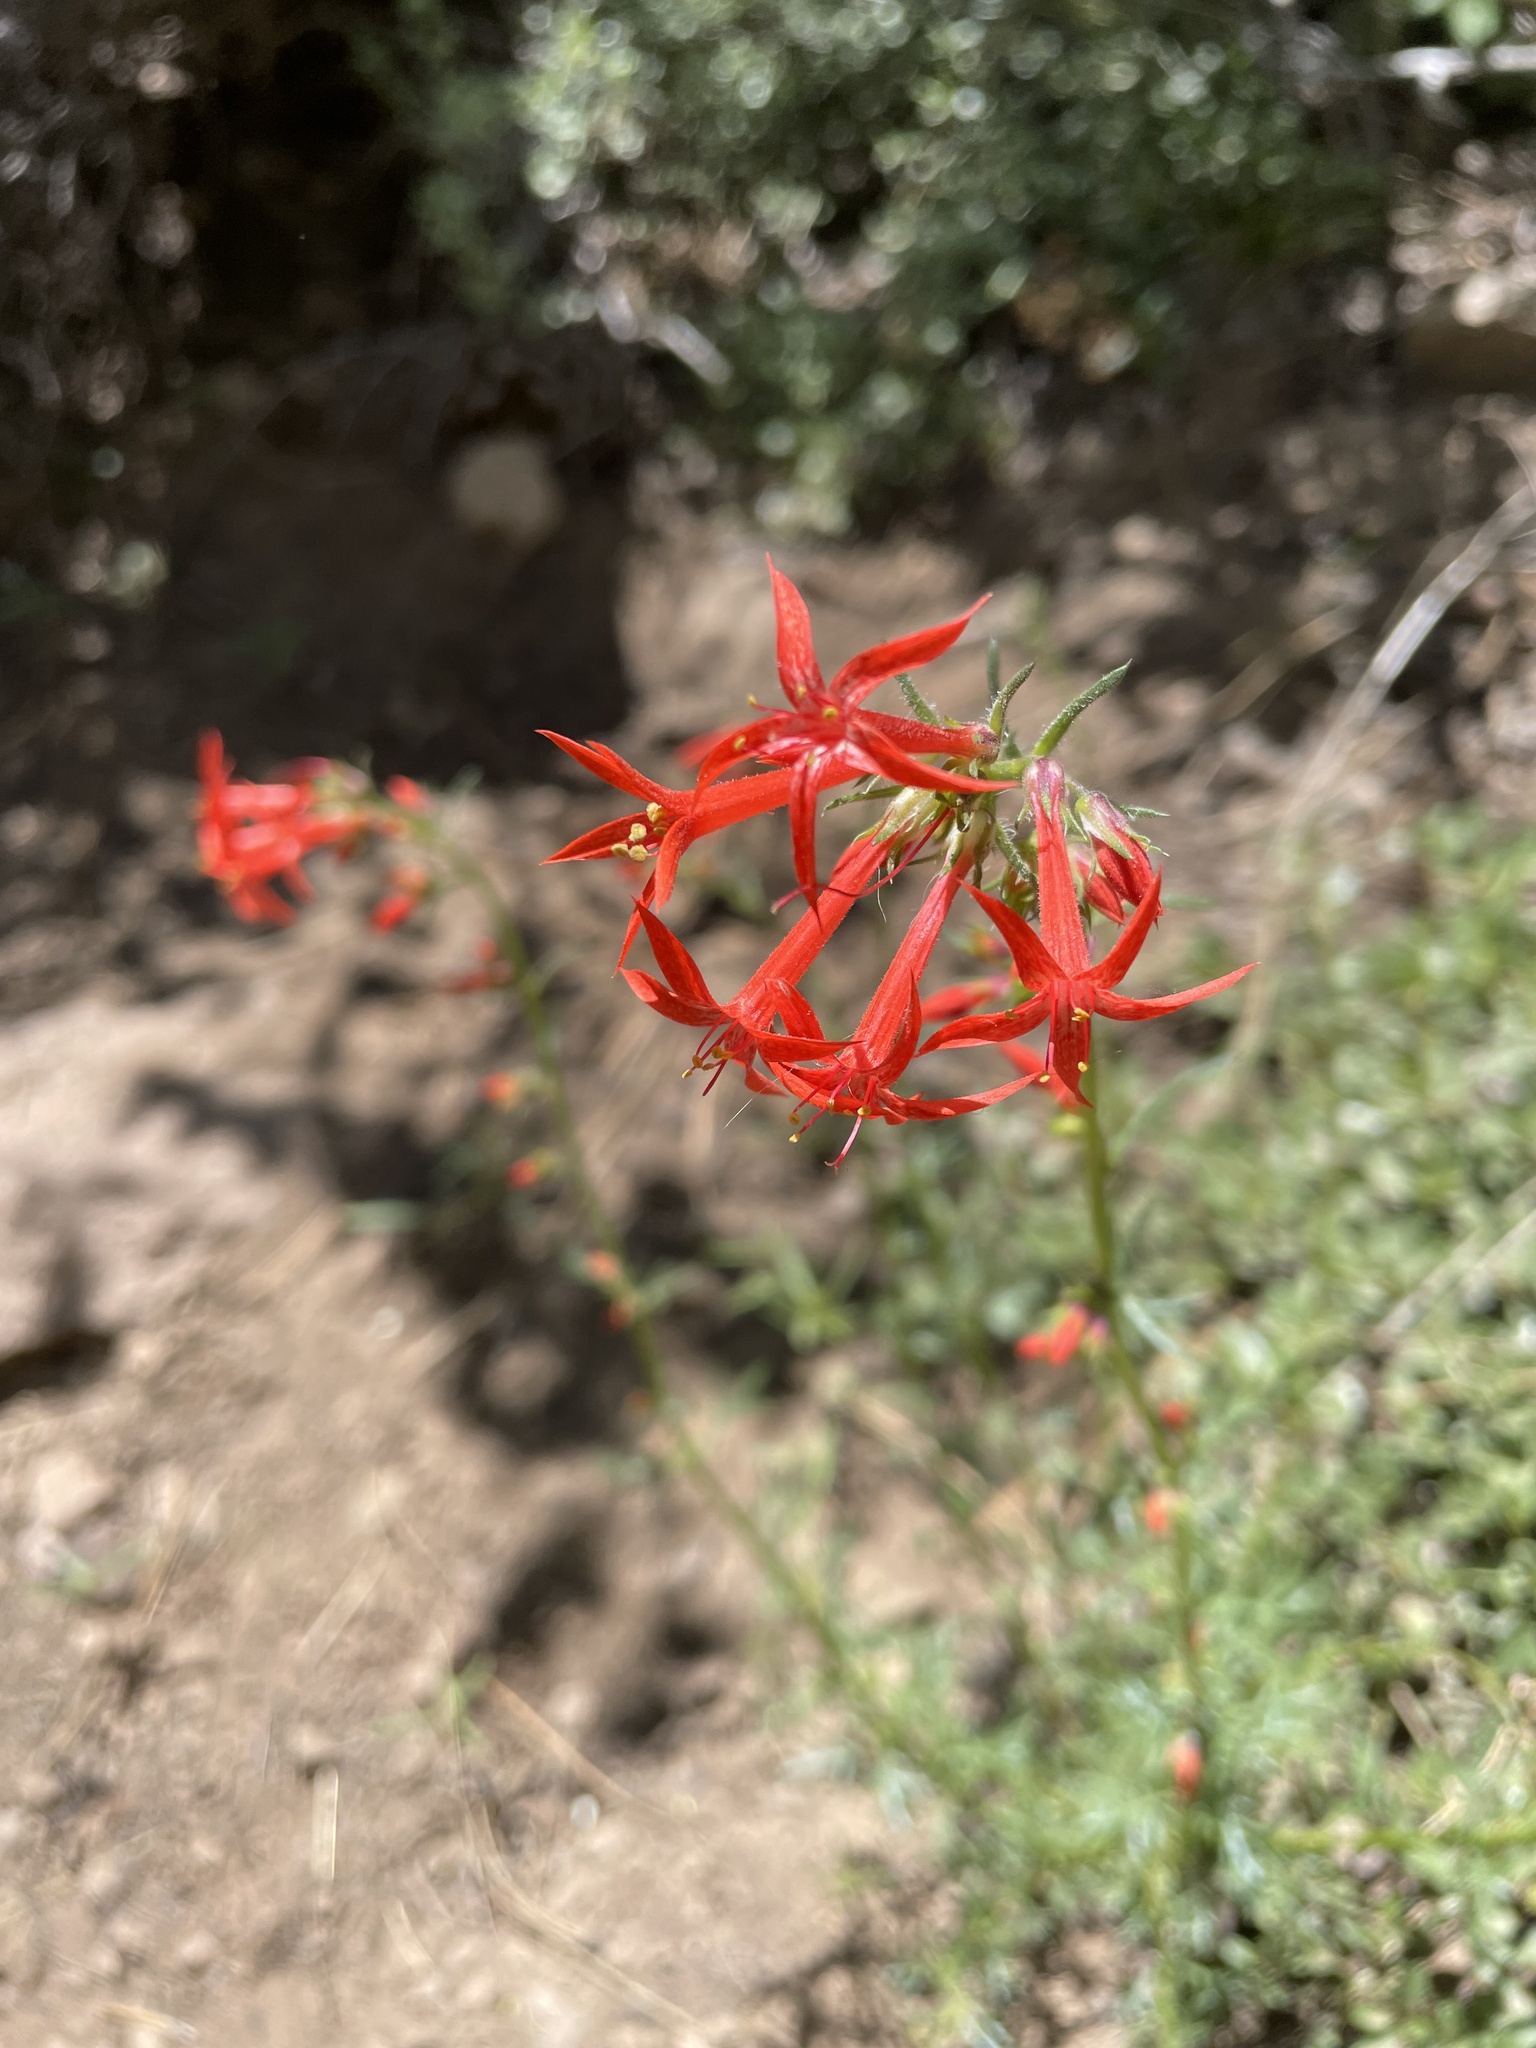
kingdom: Plantae
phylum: Tracheophyta
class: Magnoliopsida
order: Ericales
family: Polemoniaceae
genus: Ipomopsis
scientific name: Ipomopsis aggregata
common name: Scarlet gilia
